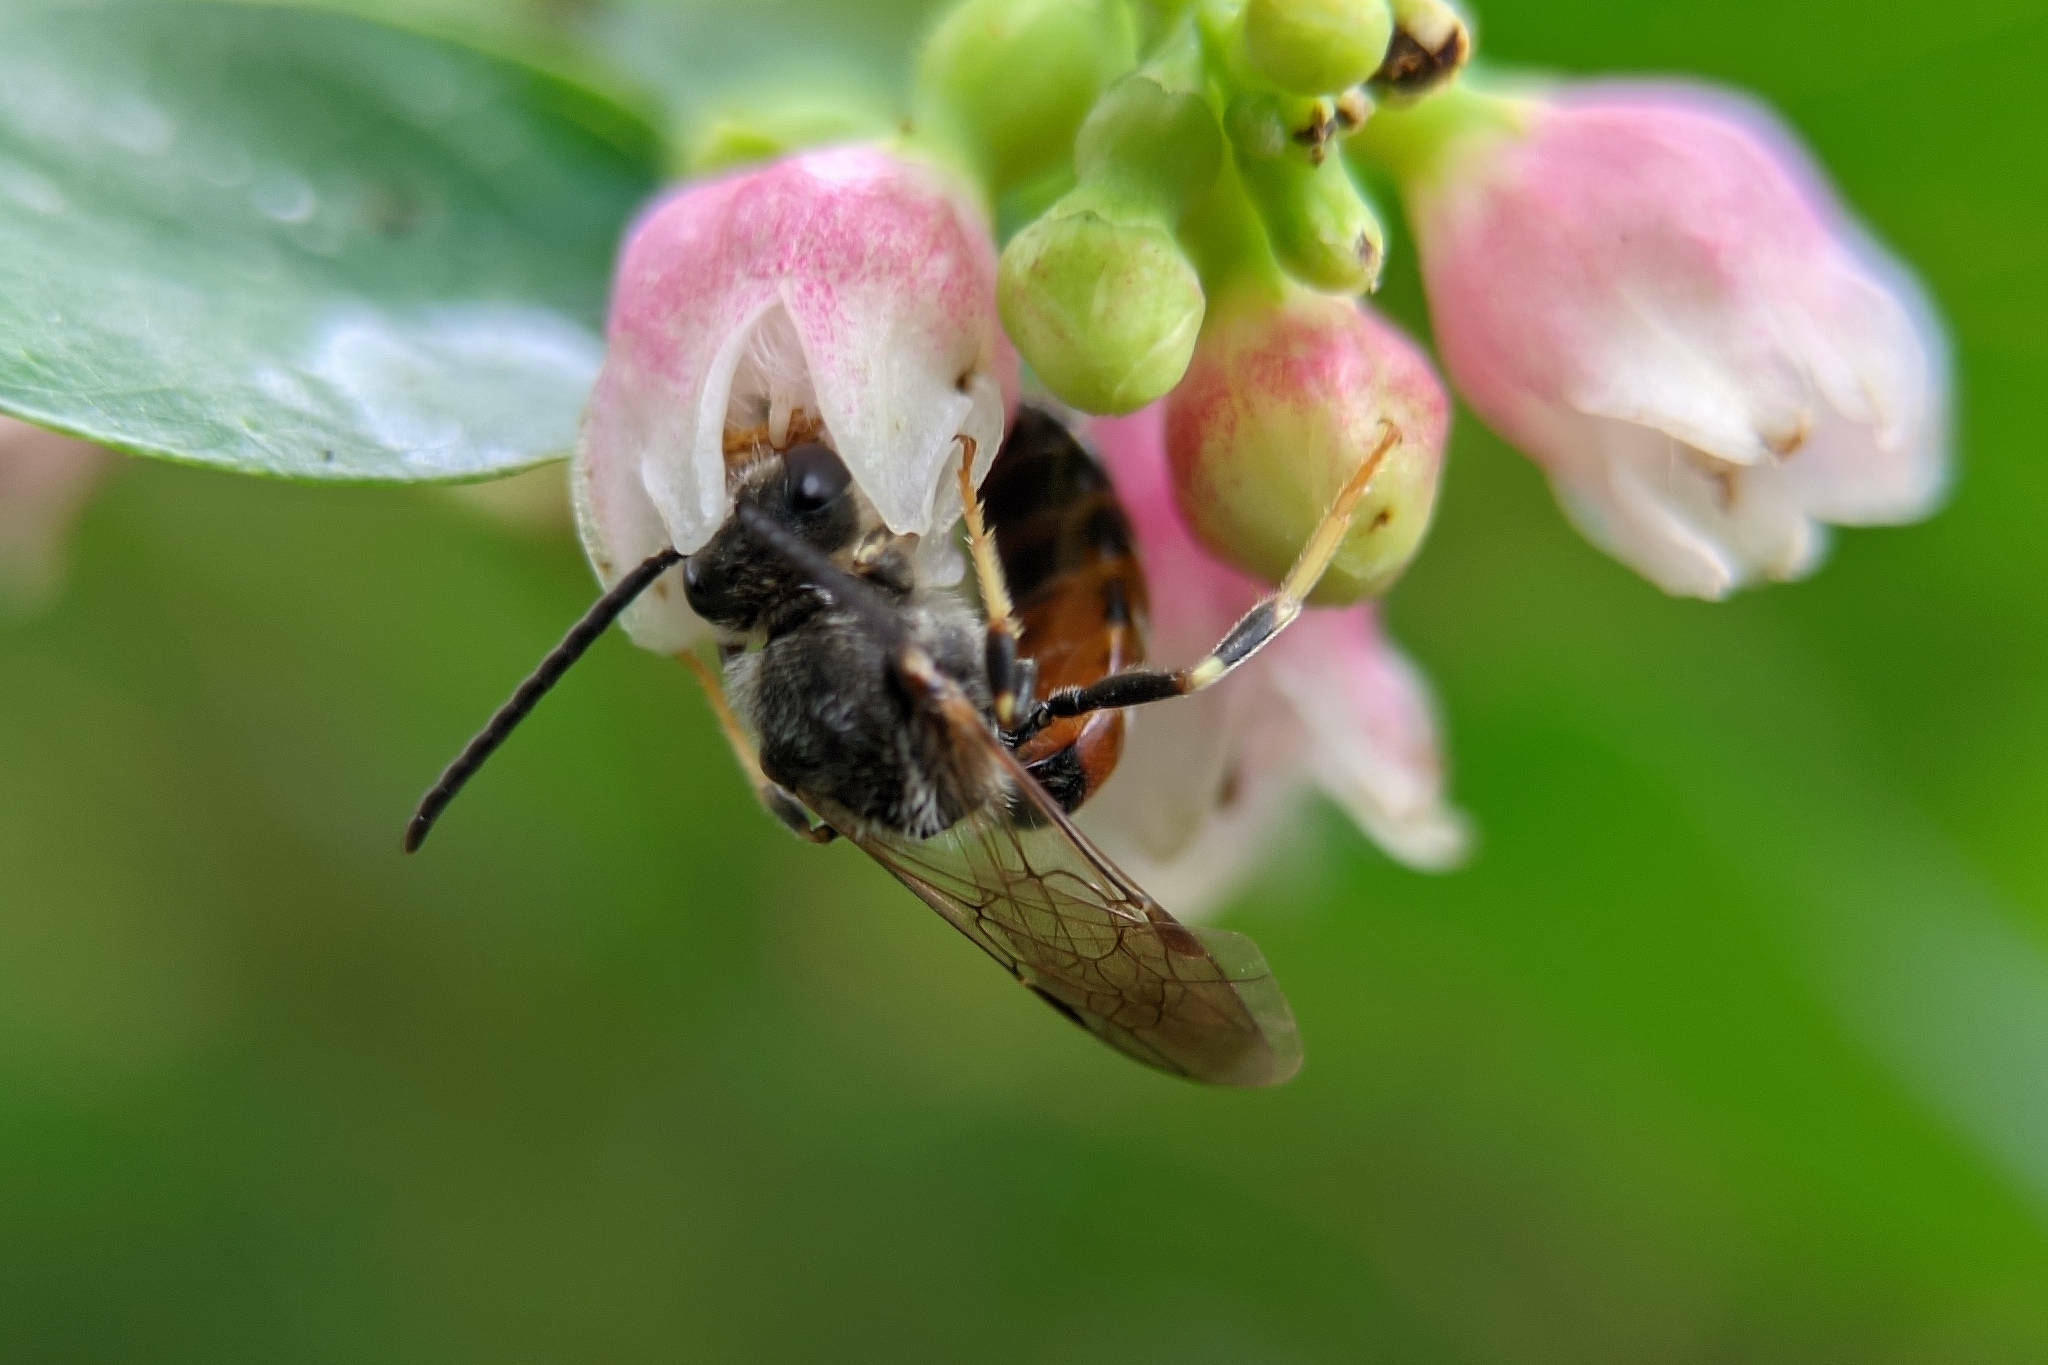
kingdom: Animalia
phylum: Arthropoda
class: Insecta
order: Hymenoptera
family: Halictidae
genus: Sphecodogastra
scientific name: Sphecodogastra
